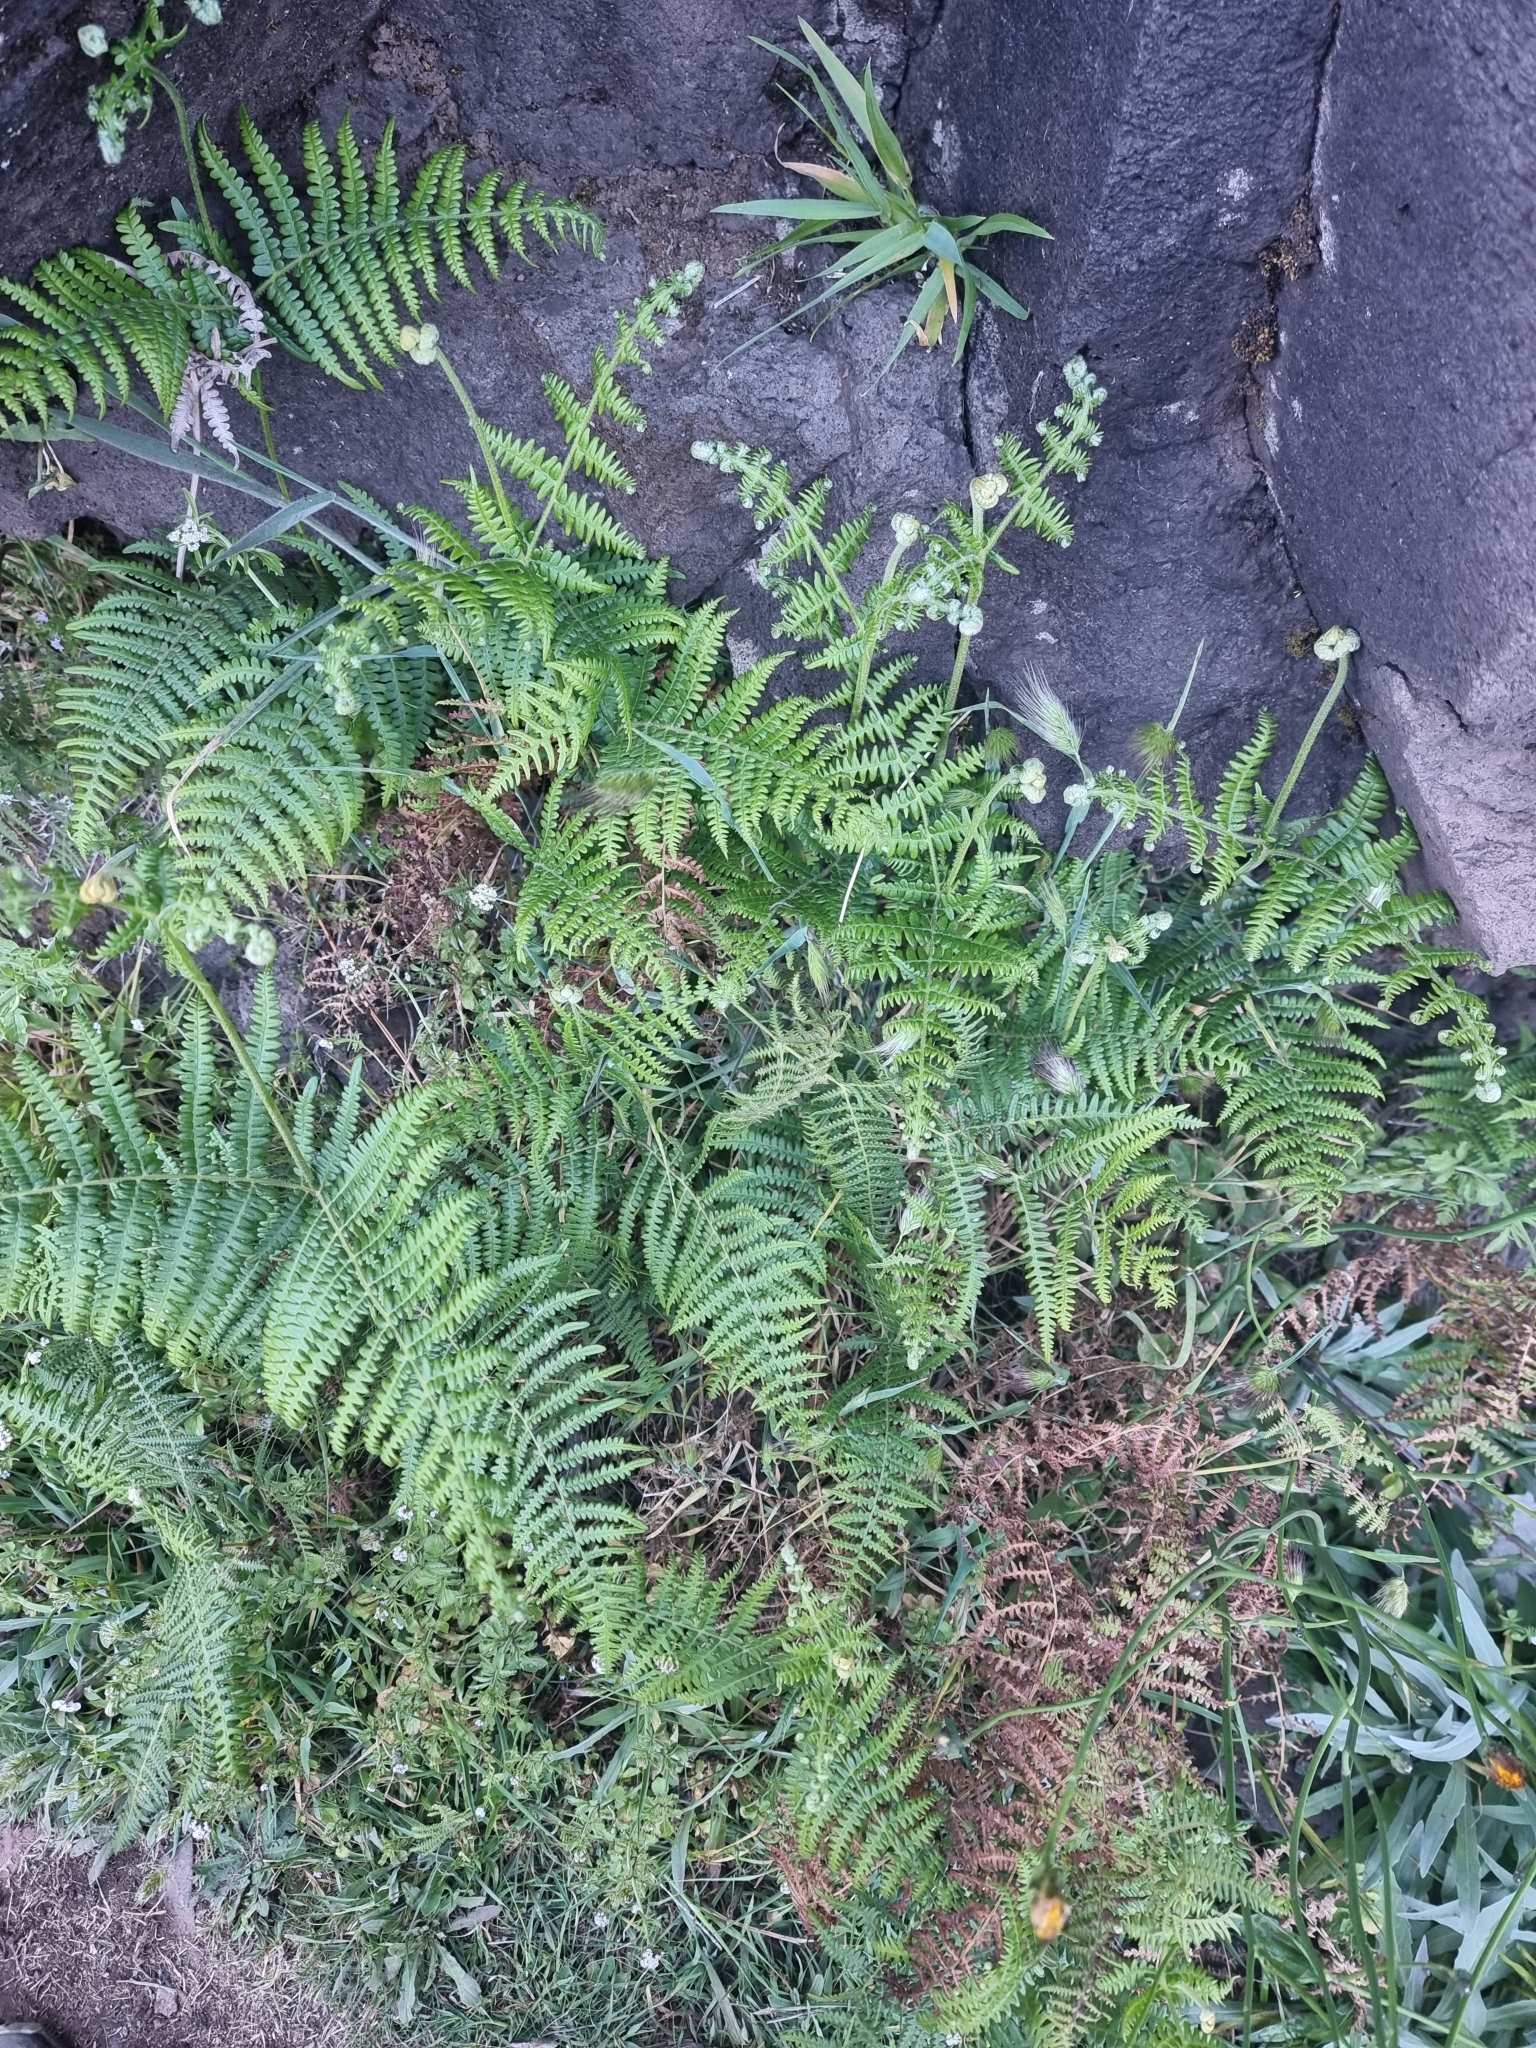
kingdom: Plantae
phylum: Tracheophyta
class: Polypodiopsida
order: Polypodiales
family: Dennstaedtiaceae
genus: Pteridium
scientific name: Pteridium aquilinum
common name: Bracken
